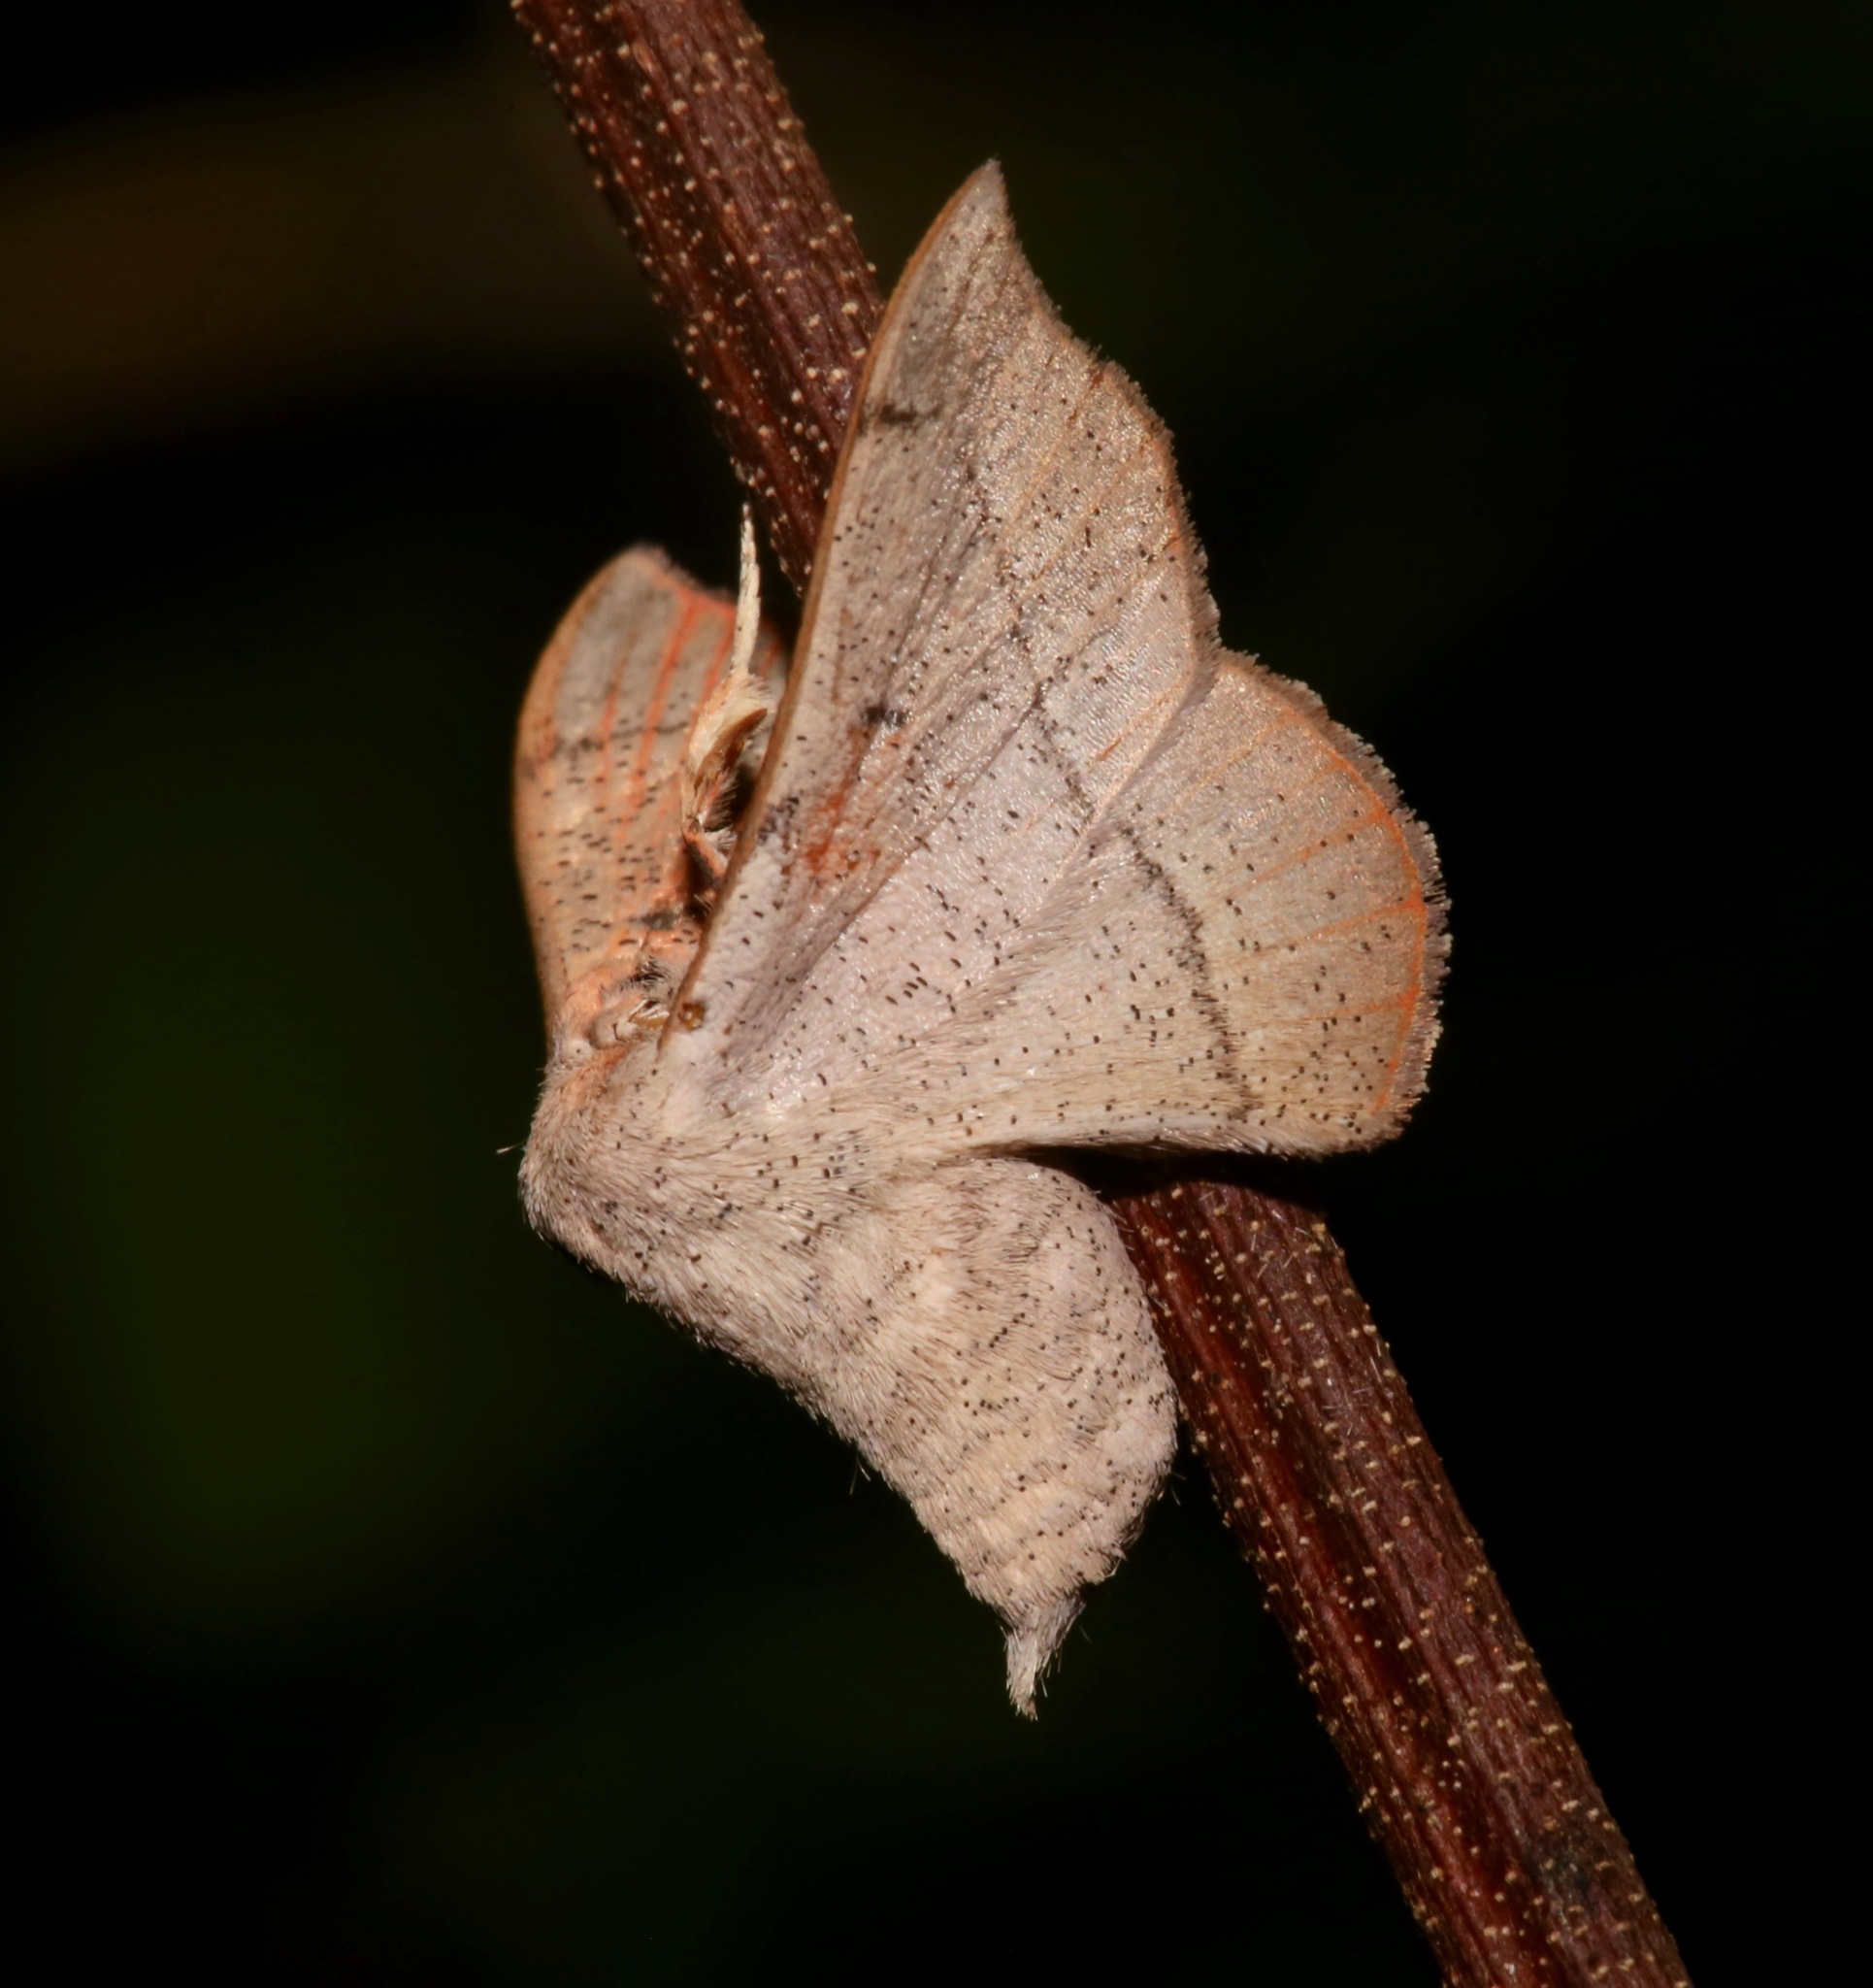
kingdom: Animalia
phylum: Arthropoda
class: Insecta
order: Lepidoptera
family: Mimallonidae
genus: Cicinnus
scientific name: Cicinnus melsheimeri
